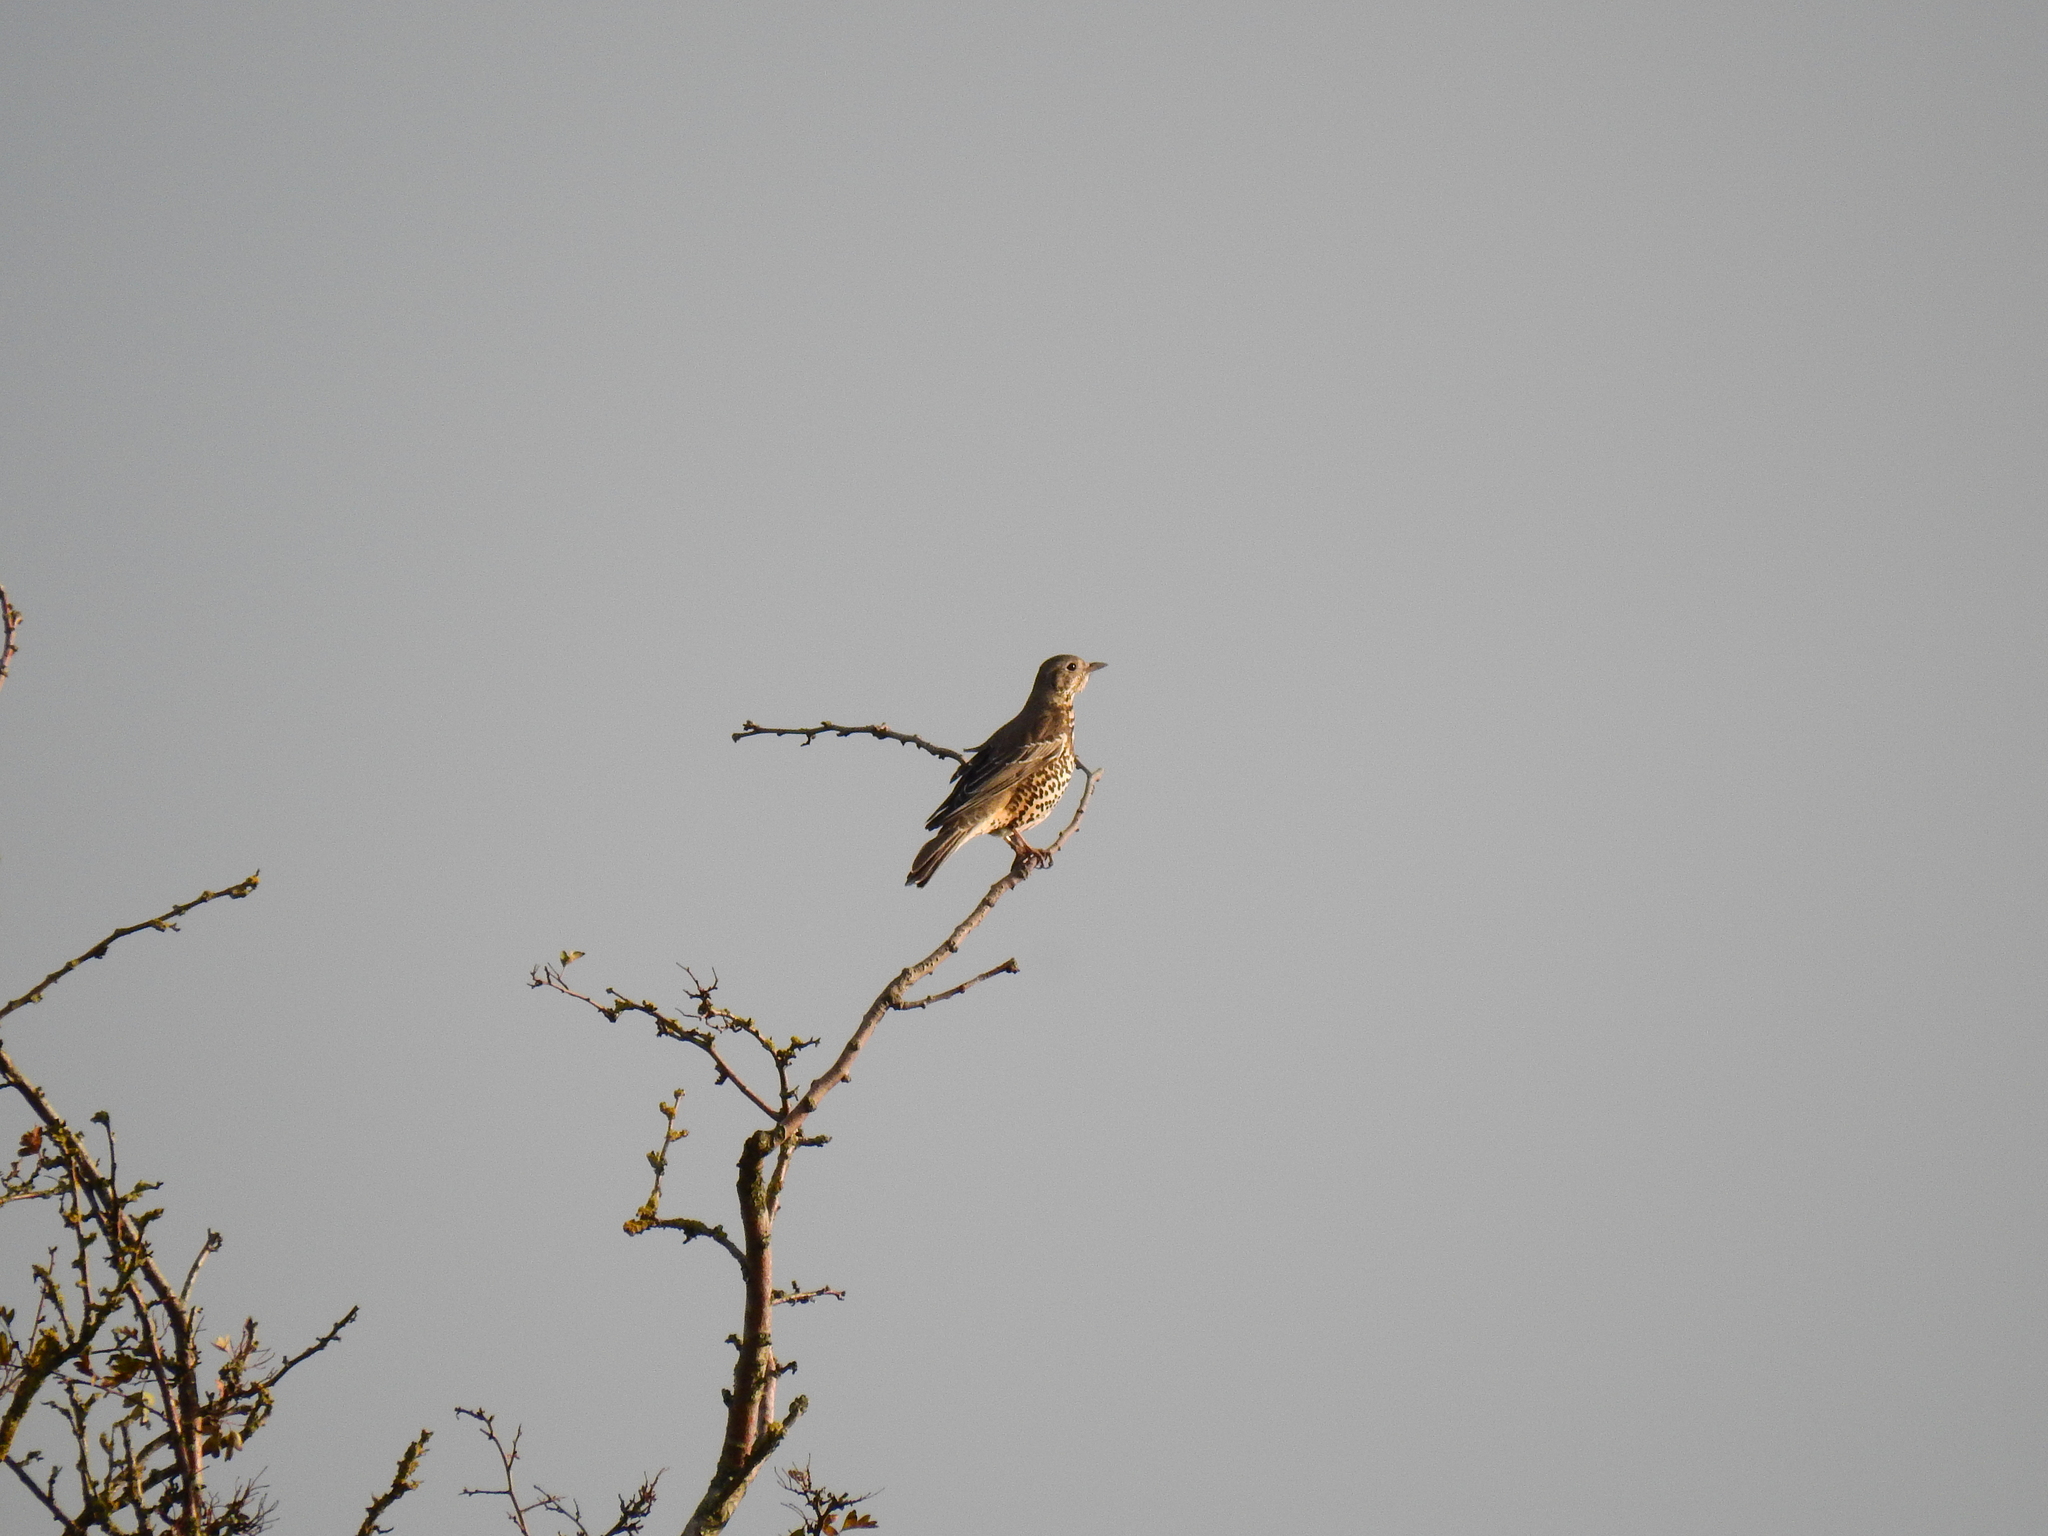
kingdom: Animalia
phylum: Chordata
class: Aves
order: Passeriformes
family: Turdidae
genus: Turdus
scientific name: Turdus viscivorus
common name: Mistle thrush
